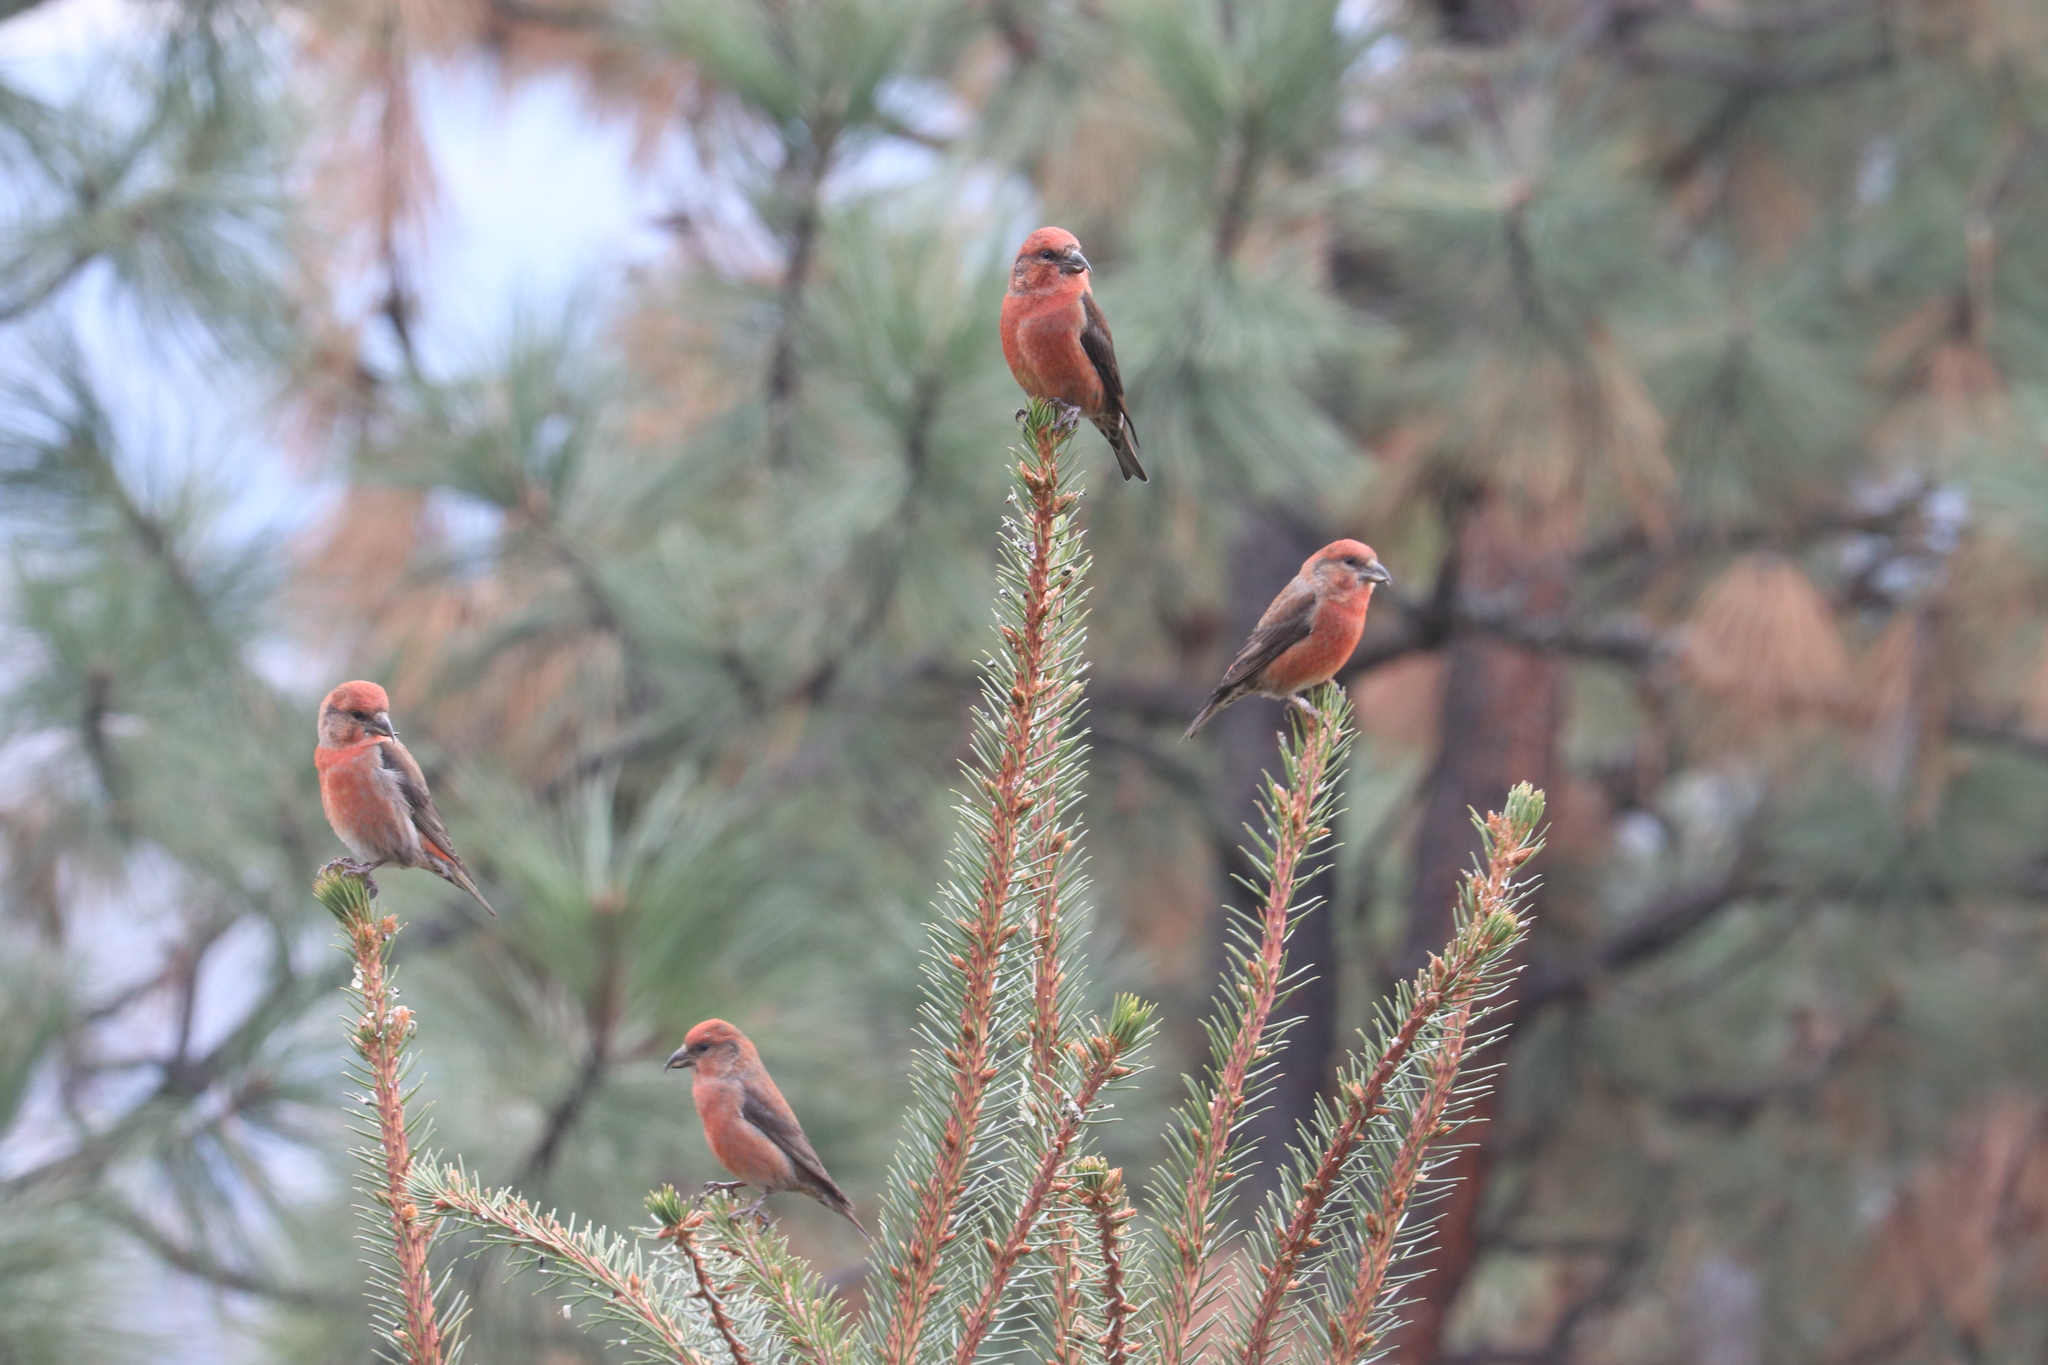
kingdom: Animalia
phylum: Chordata
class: Aves
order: Passeriformes
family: Fringillidae
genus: Loxia
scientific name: Loxia curvirostra
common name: Red crossbill
